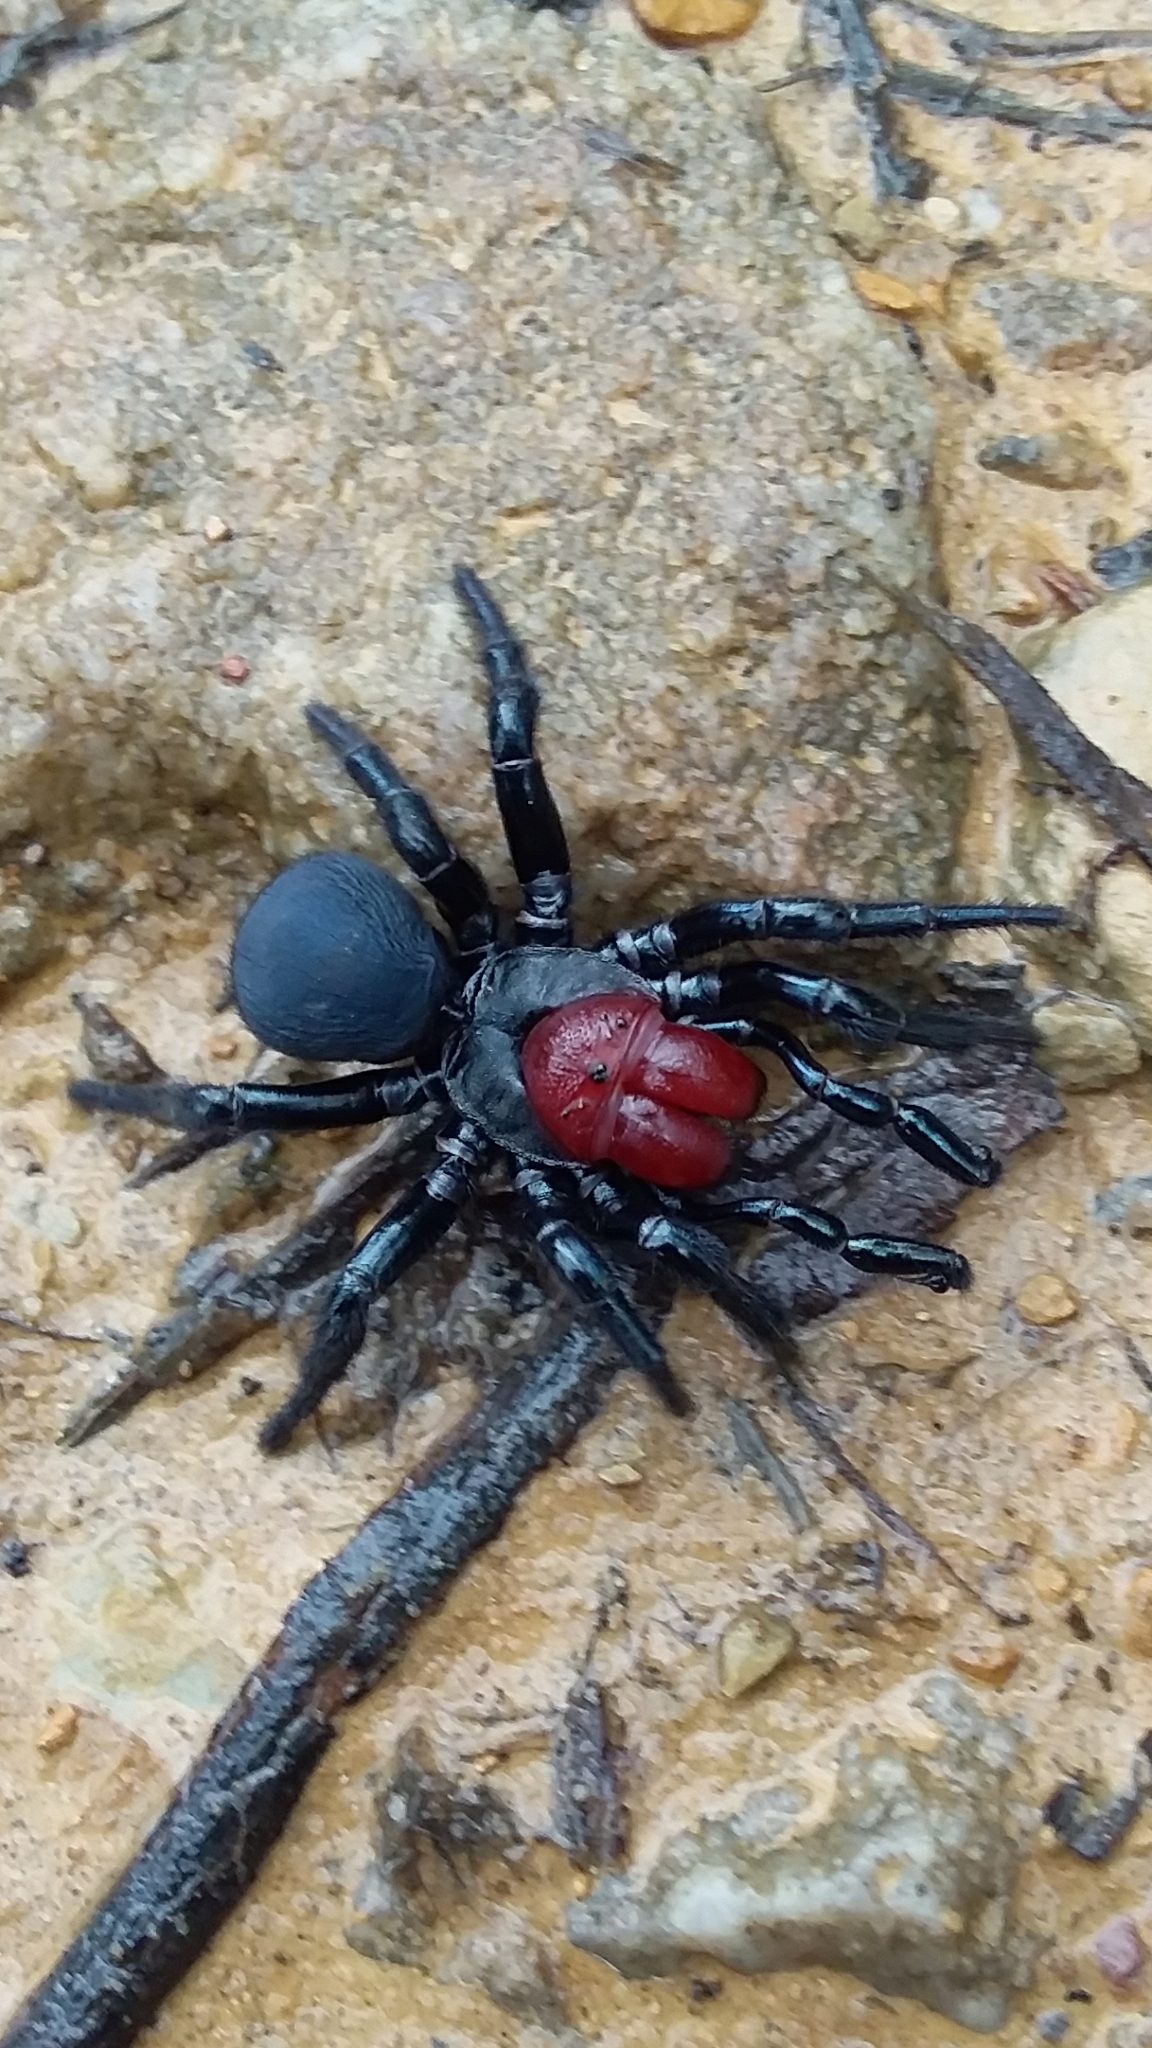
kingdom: Animalia
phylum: Arthropoda
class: Arachnida
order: Araneae
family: Actinopodidae
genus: Missulena
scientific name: Missulena occatoria
